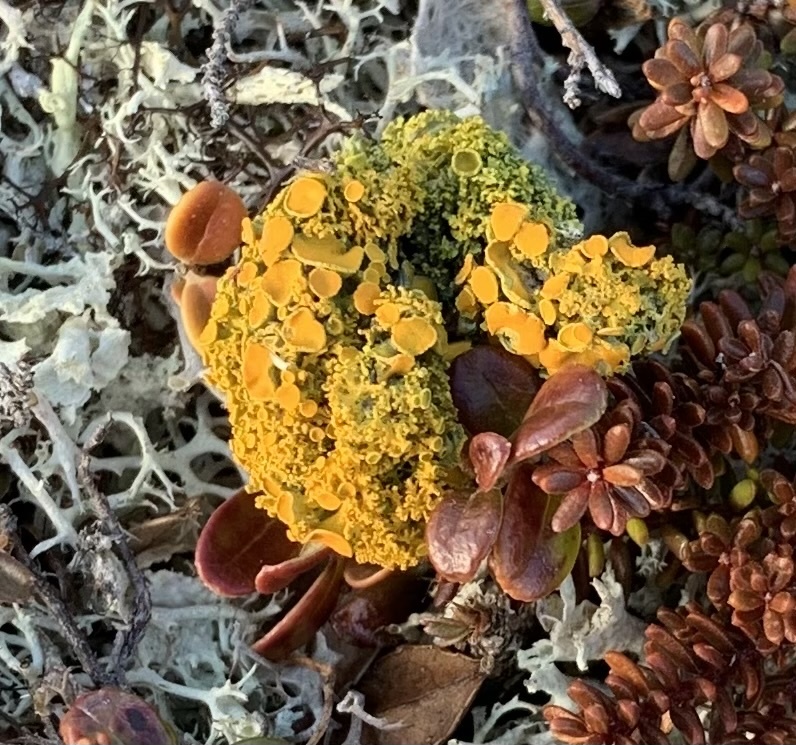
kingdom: Fungi
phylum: Ascomycota
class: Lecanoromycetes
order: Teloschistales
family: Teloschistaceae
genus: Xanthoria
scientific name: Xanthoria parietina
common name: Common orange lichen
